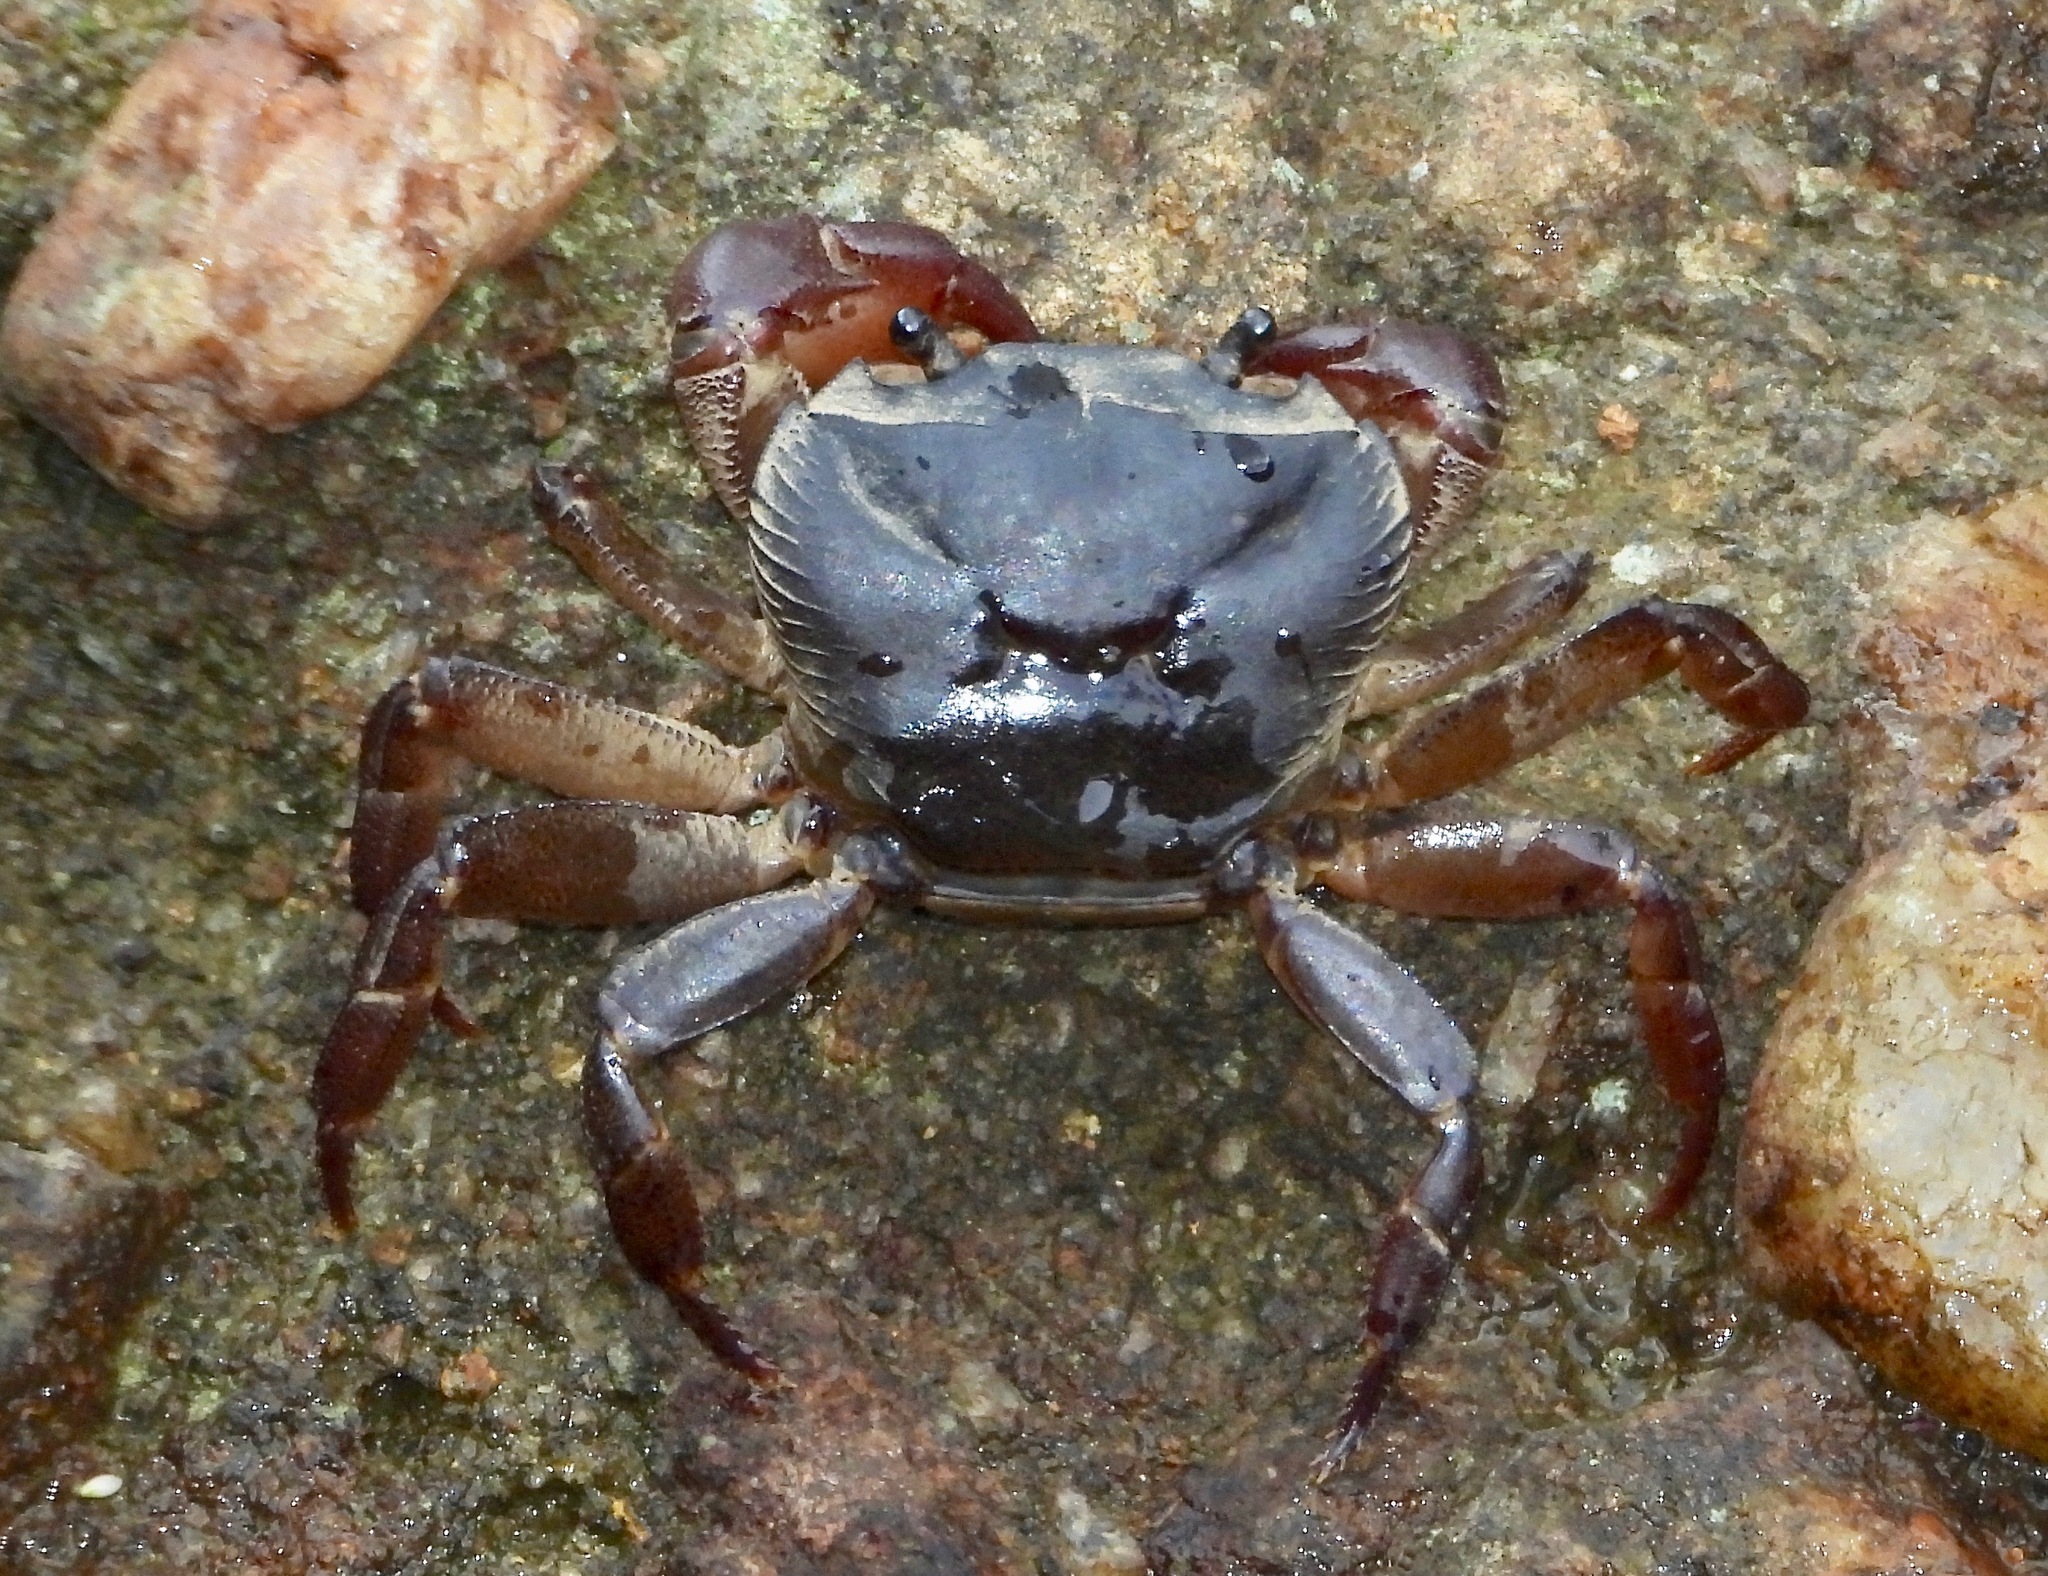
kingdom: Animalia
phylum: Arthropoda
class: Malacostraca
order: Decapoda
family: Gecarcinucidae
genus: Ceylonthelphusa
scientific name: Ceylonthelphusa rugosa
